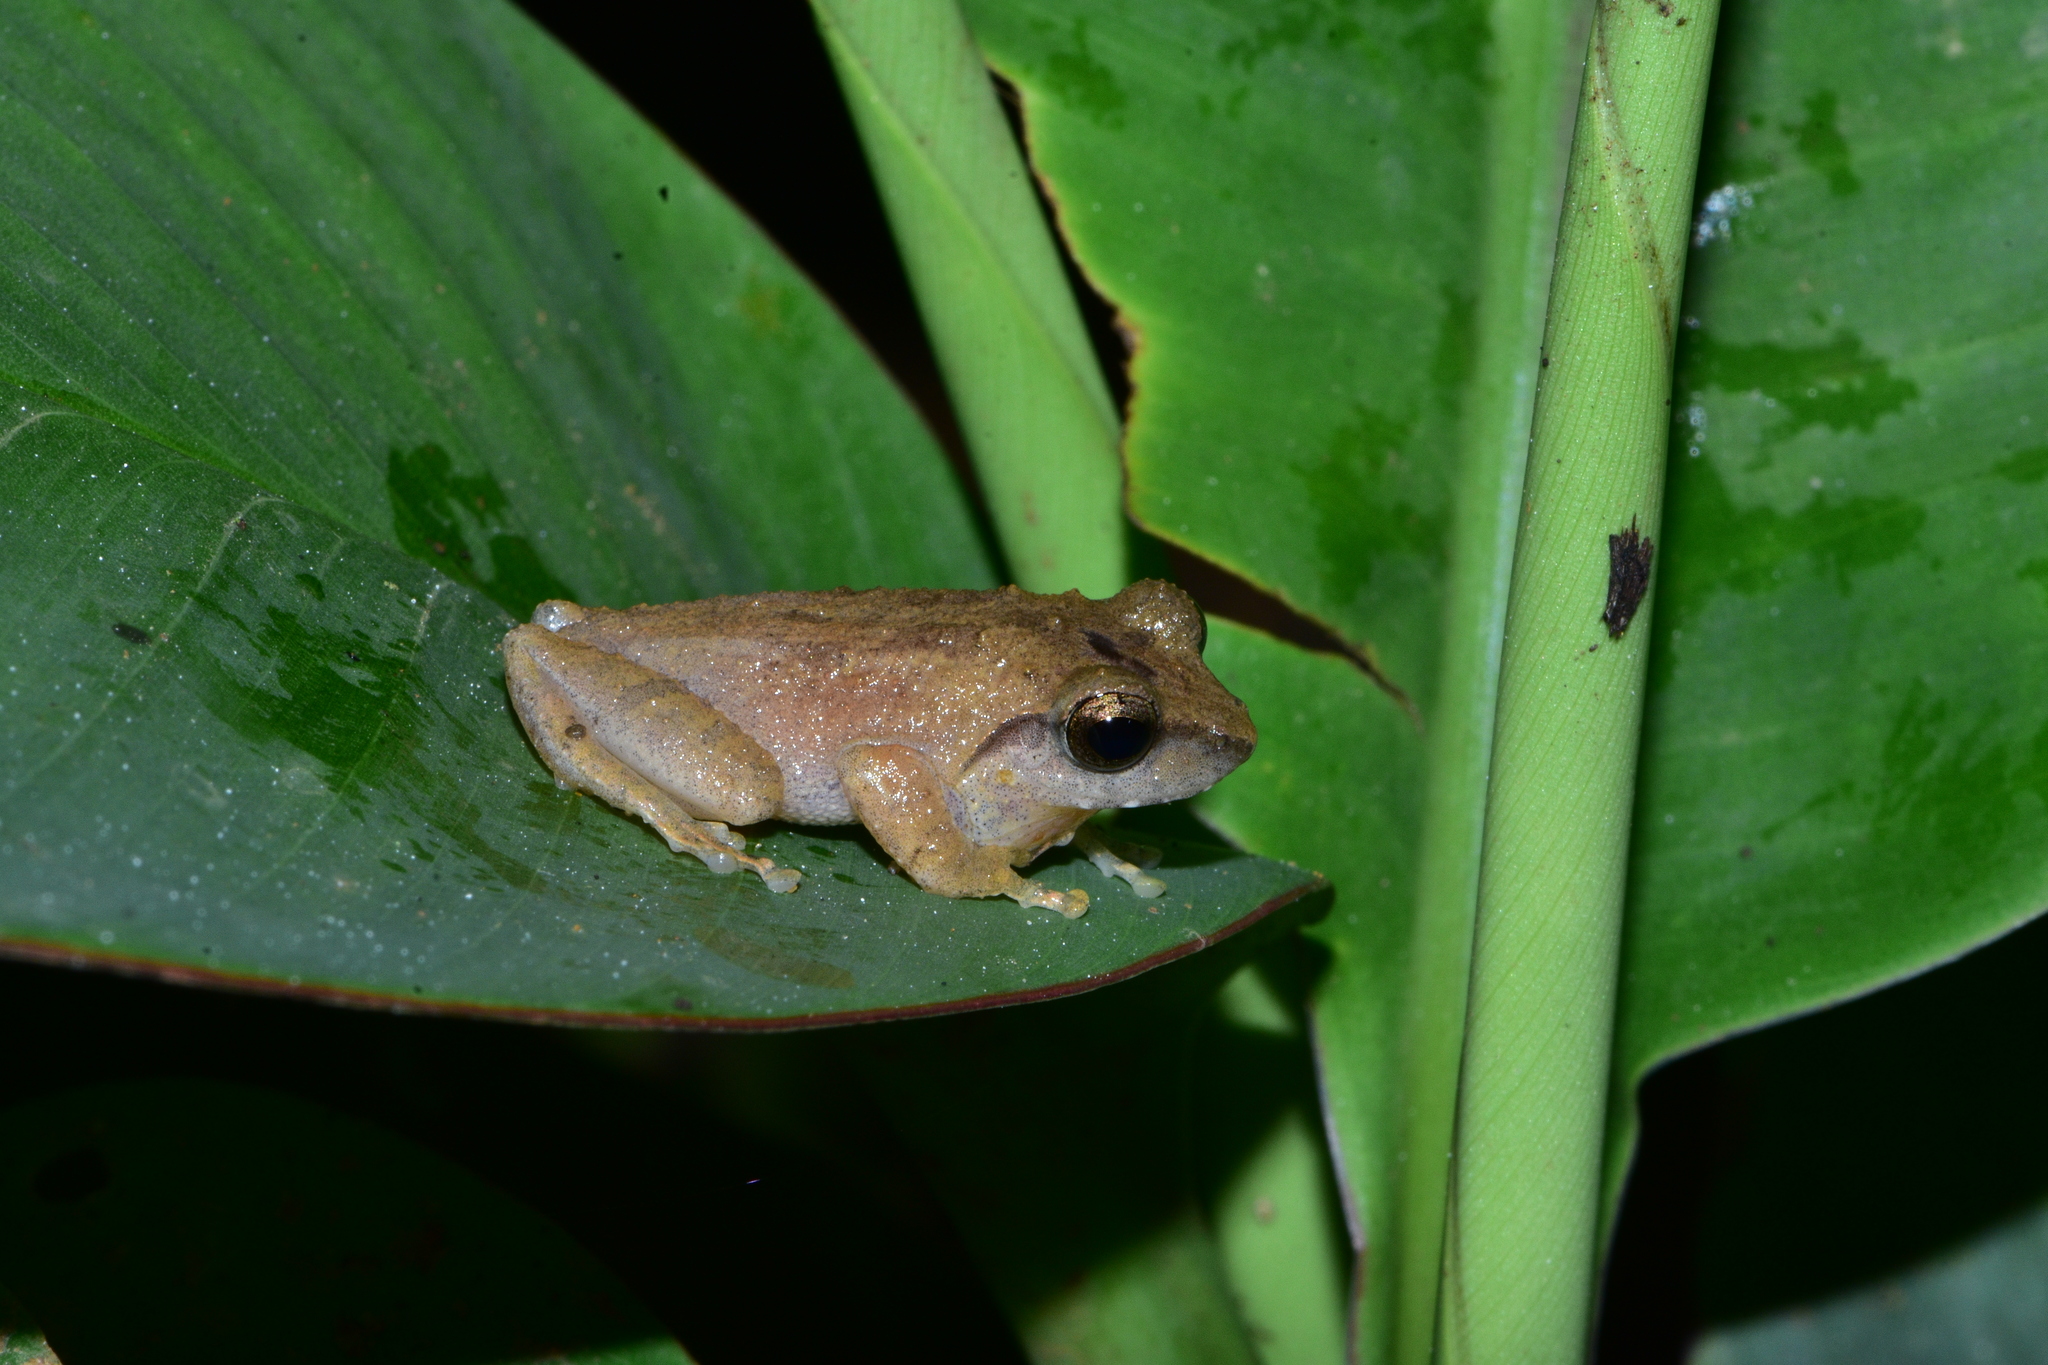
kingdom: Animalia
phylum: Chordata
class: Amphibia
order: Anura
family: Rhacophoridae
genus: Pseudophilautus
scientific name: Pseudophilautus wynaadensis
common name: Dark-eared bush frog
